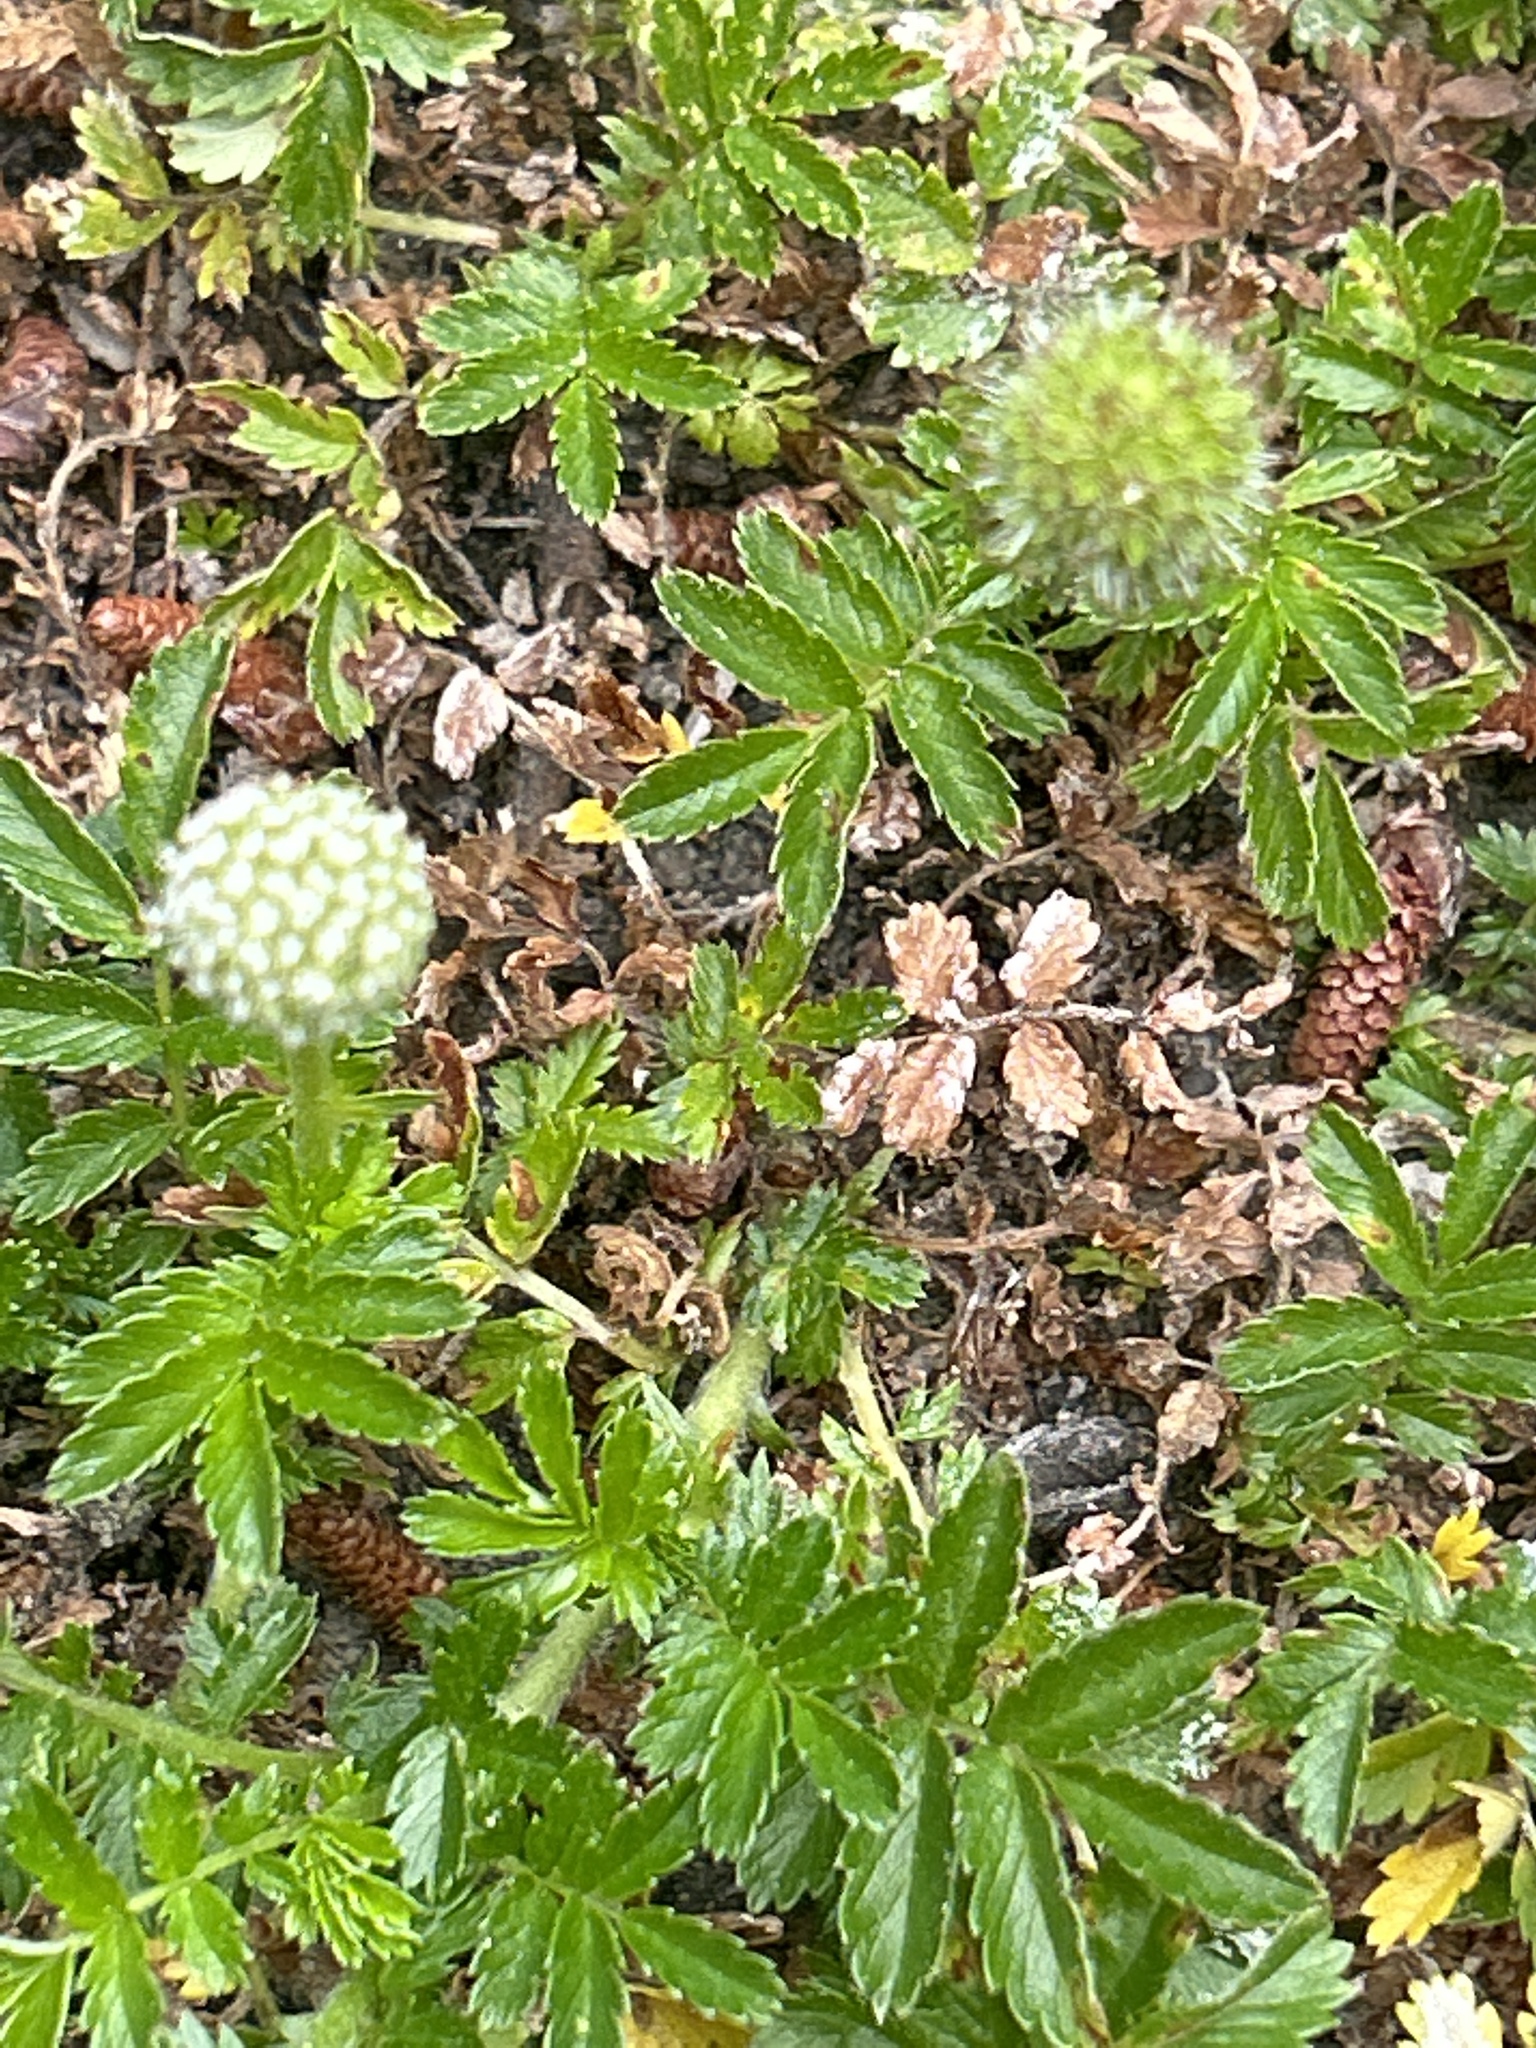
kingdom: Plantae
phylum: Tracheophyta
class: Magnoliopsida
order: Rosales
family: Rosaceae
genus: Acaena
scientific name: Acaena novae-zelandiae
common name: Pirri-pirri-bur
